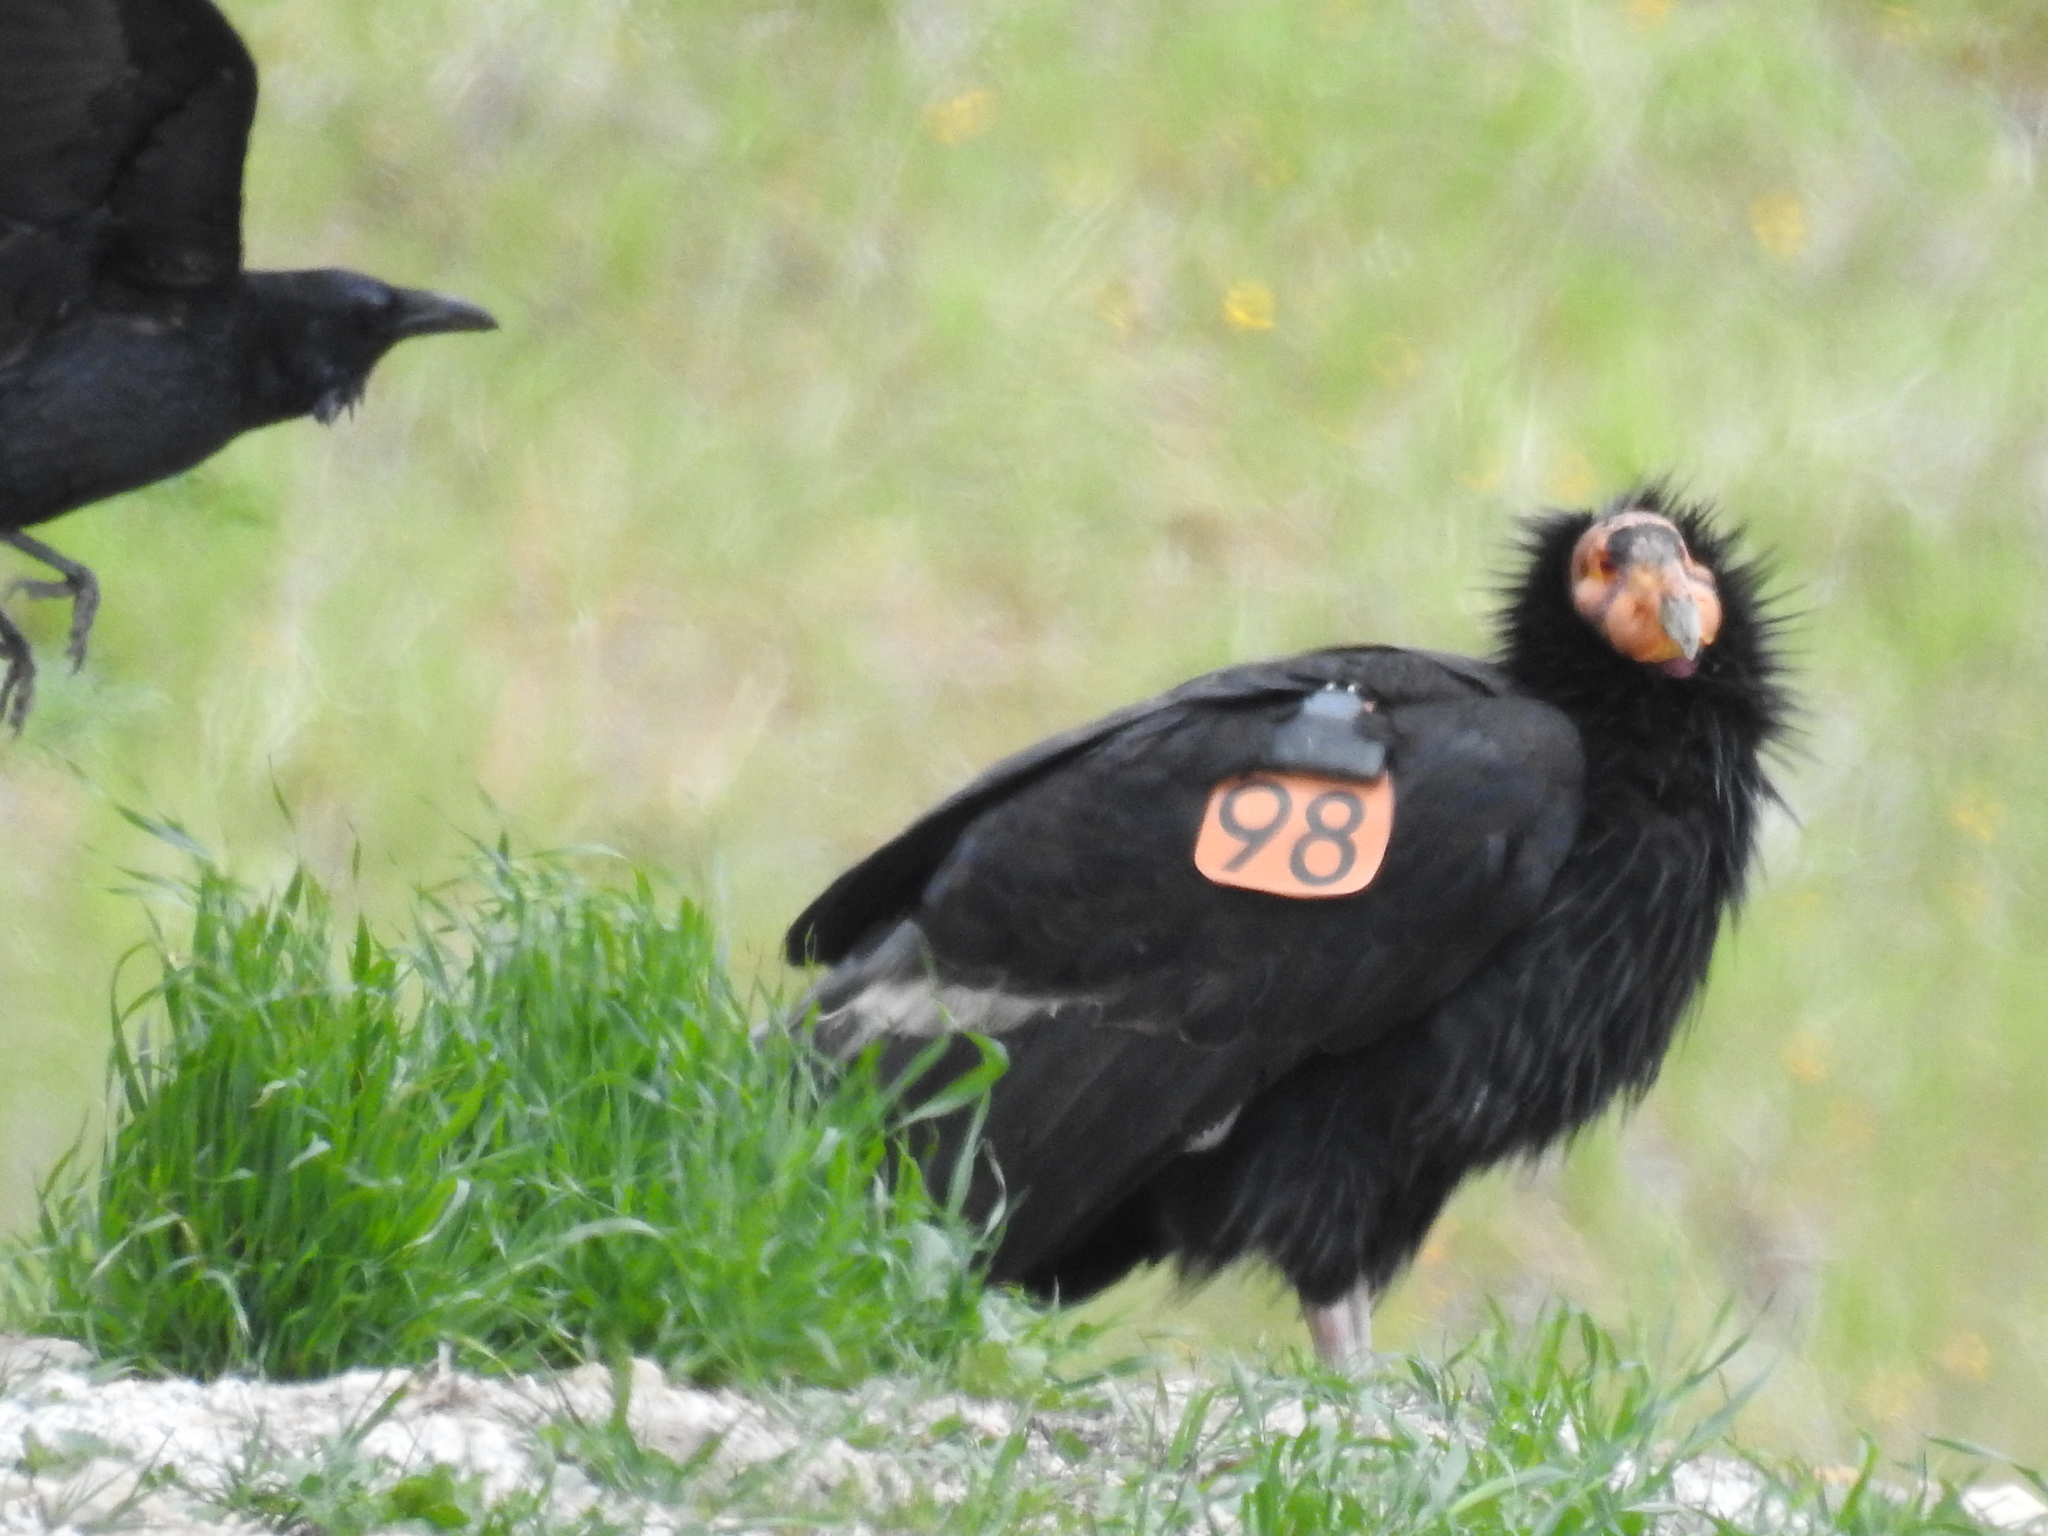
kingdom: Animalia
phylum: Chordata
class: Aves
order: Accipitriformes
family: Cathartidae
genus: Gymnogyps
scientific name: Gymnogyps californianus
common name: California condor
